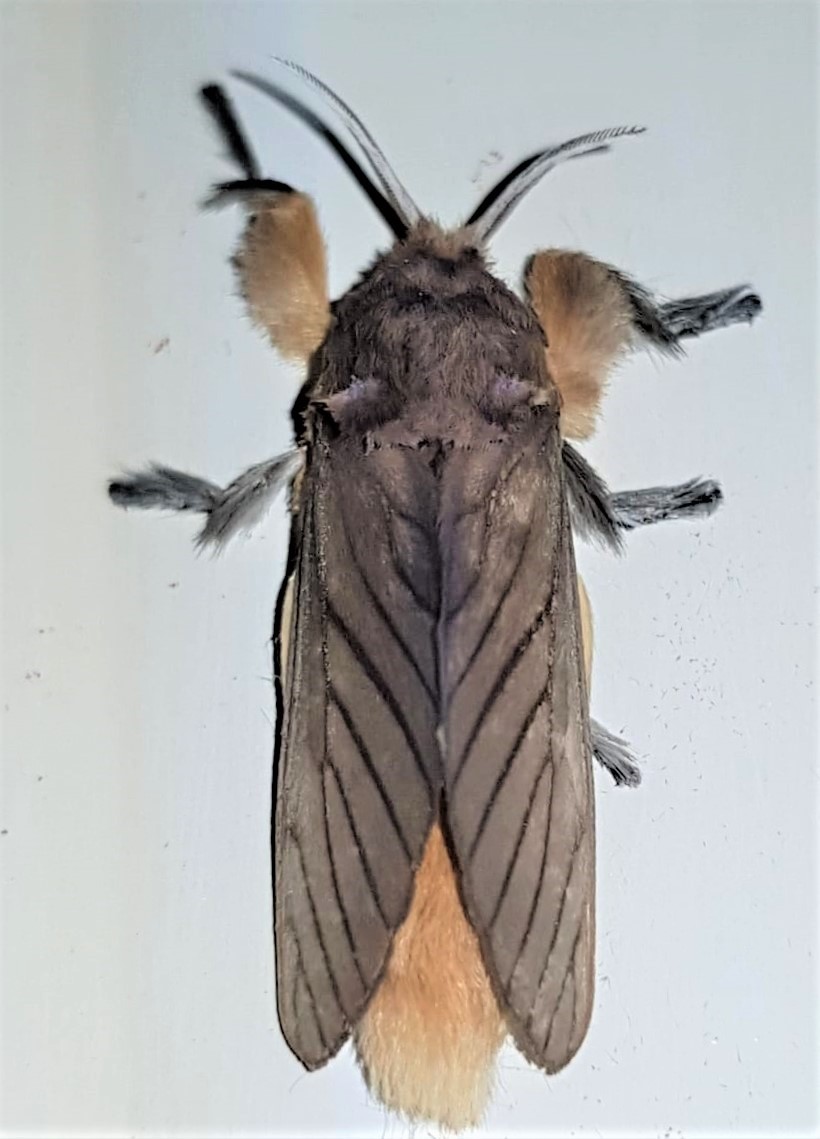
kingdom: Animalia
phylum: Arthropoda
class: Insecta
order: Lepidoptera
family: Megalopygidae
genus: Thoscora
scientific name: Thoscora pellucida
